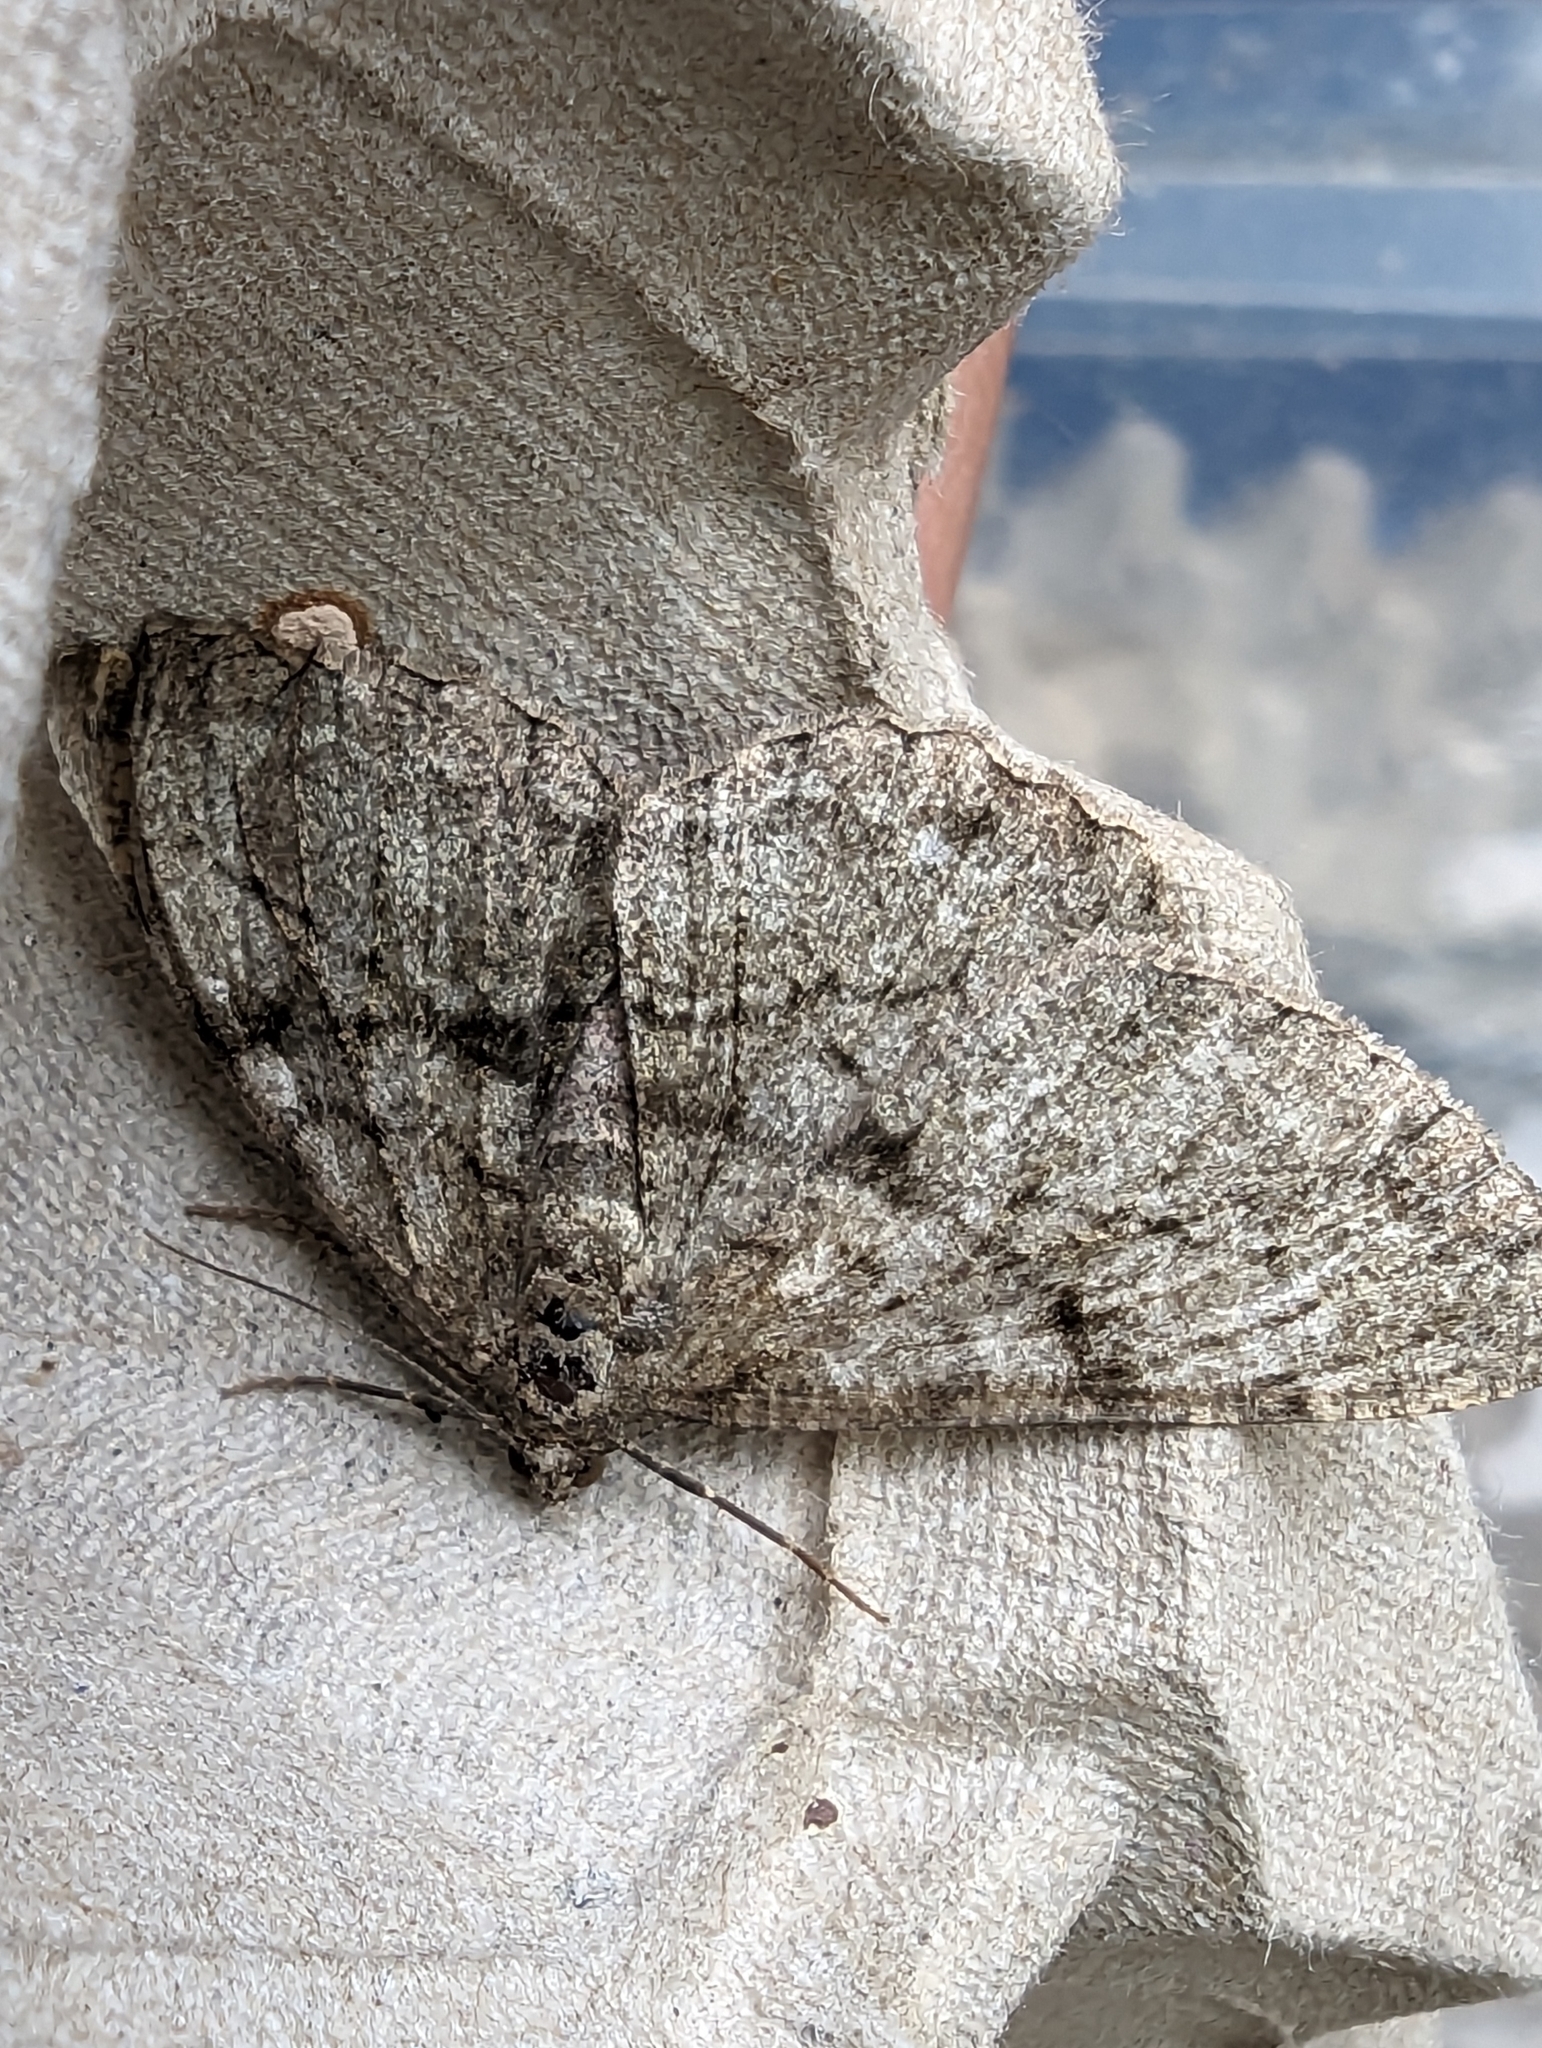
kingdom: Animalia
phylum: Arthropoda
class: Insecta
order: Lepidoptera
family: Geometridae
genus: Peribatodes
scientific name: Peribatodes rhomboidaria
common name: Willow beauty
